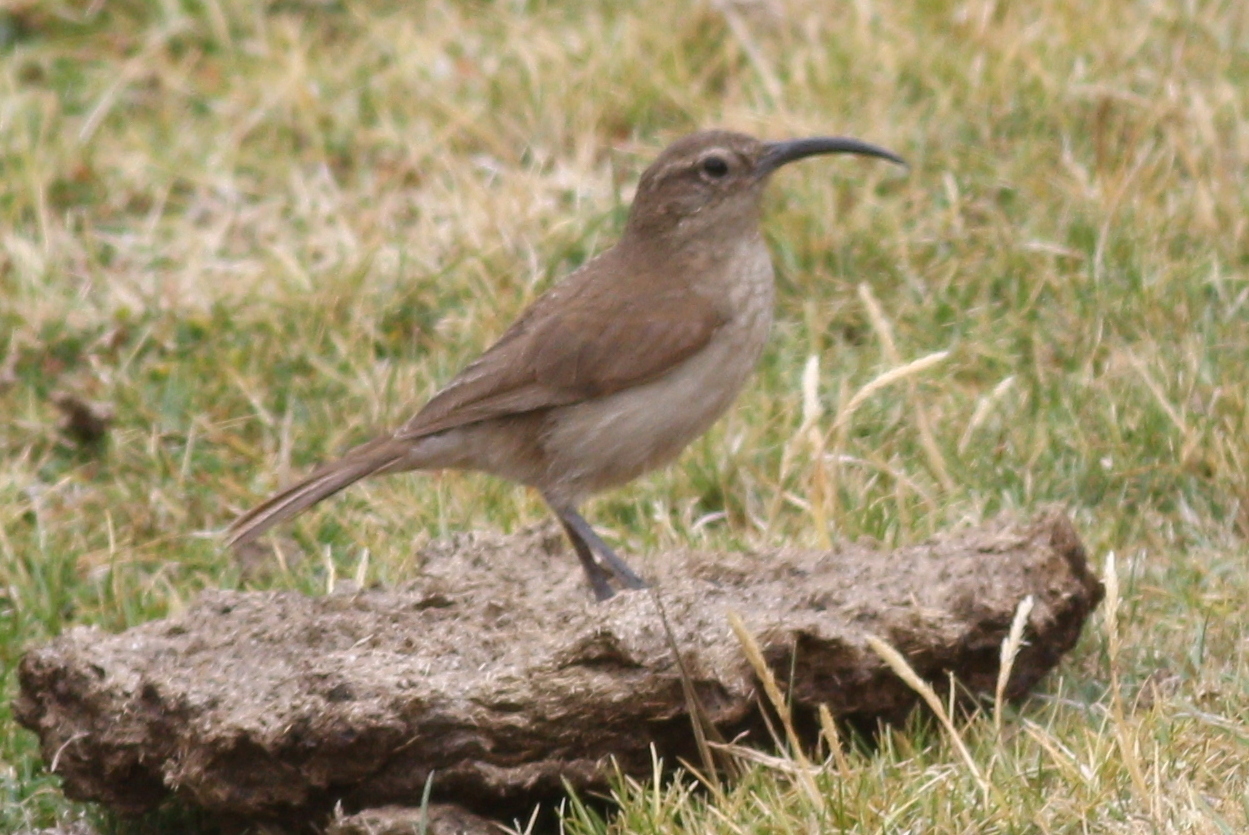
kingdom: Animalia
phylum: Chordata
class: Aves
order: Passeriformes
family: Furnariidae
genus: Upucerthia
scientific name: Upucerthia validirostris
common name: Buff-breasted earthcreeper
